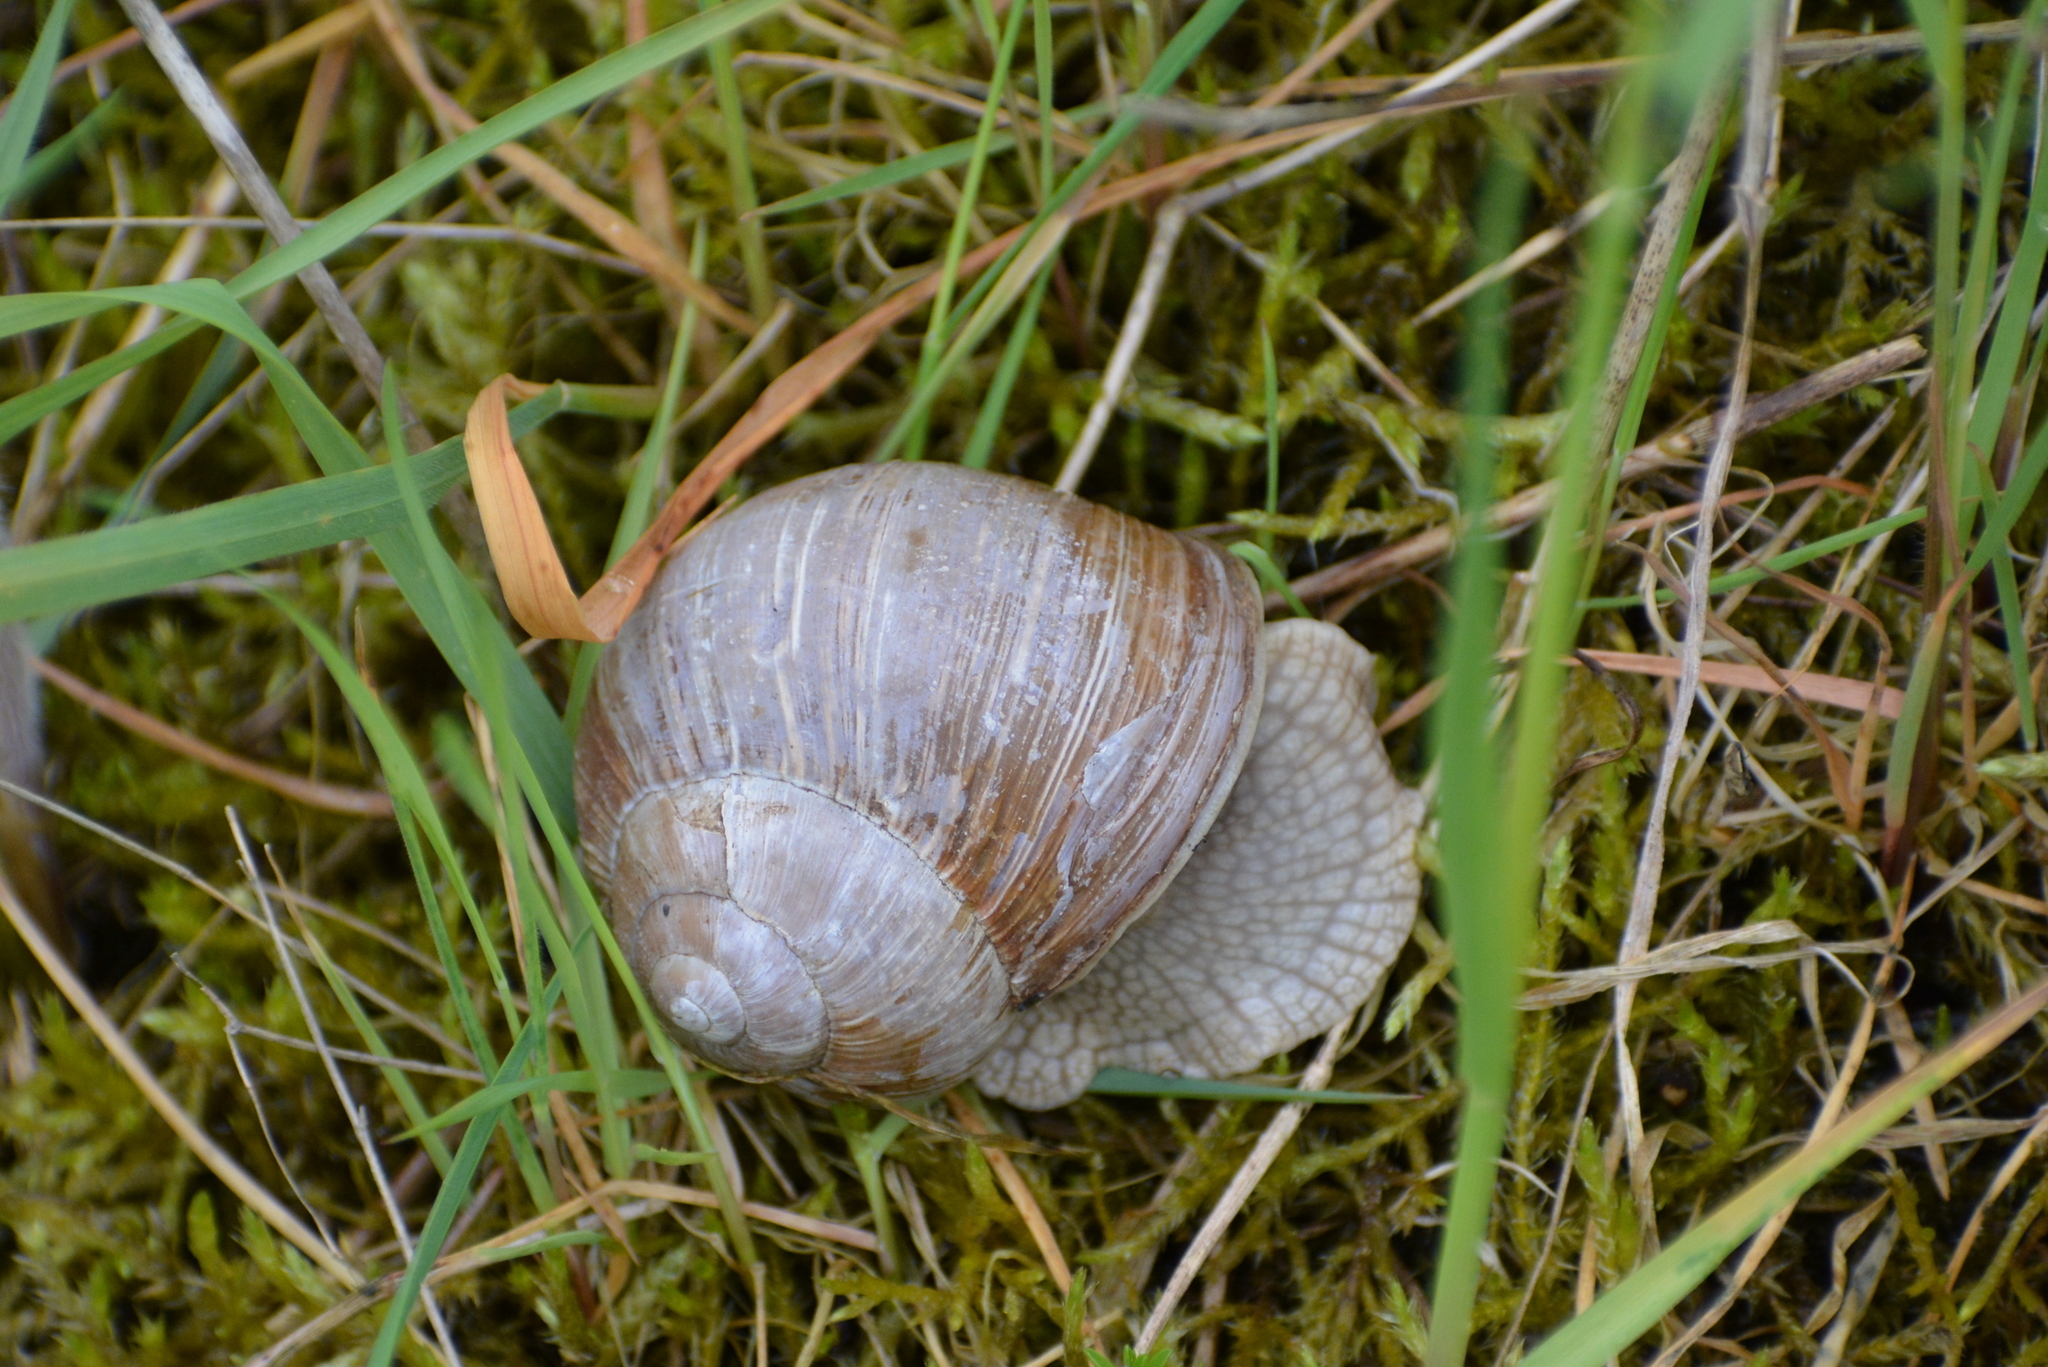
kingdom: Animalia
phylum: Mollusca
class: Gastropoda
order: Stylommatophora
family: Helicidae
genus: Helix
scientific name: Helix pomatia
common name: Roman snail
